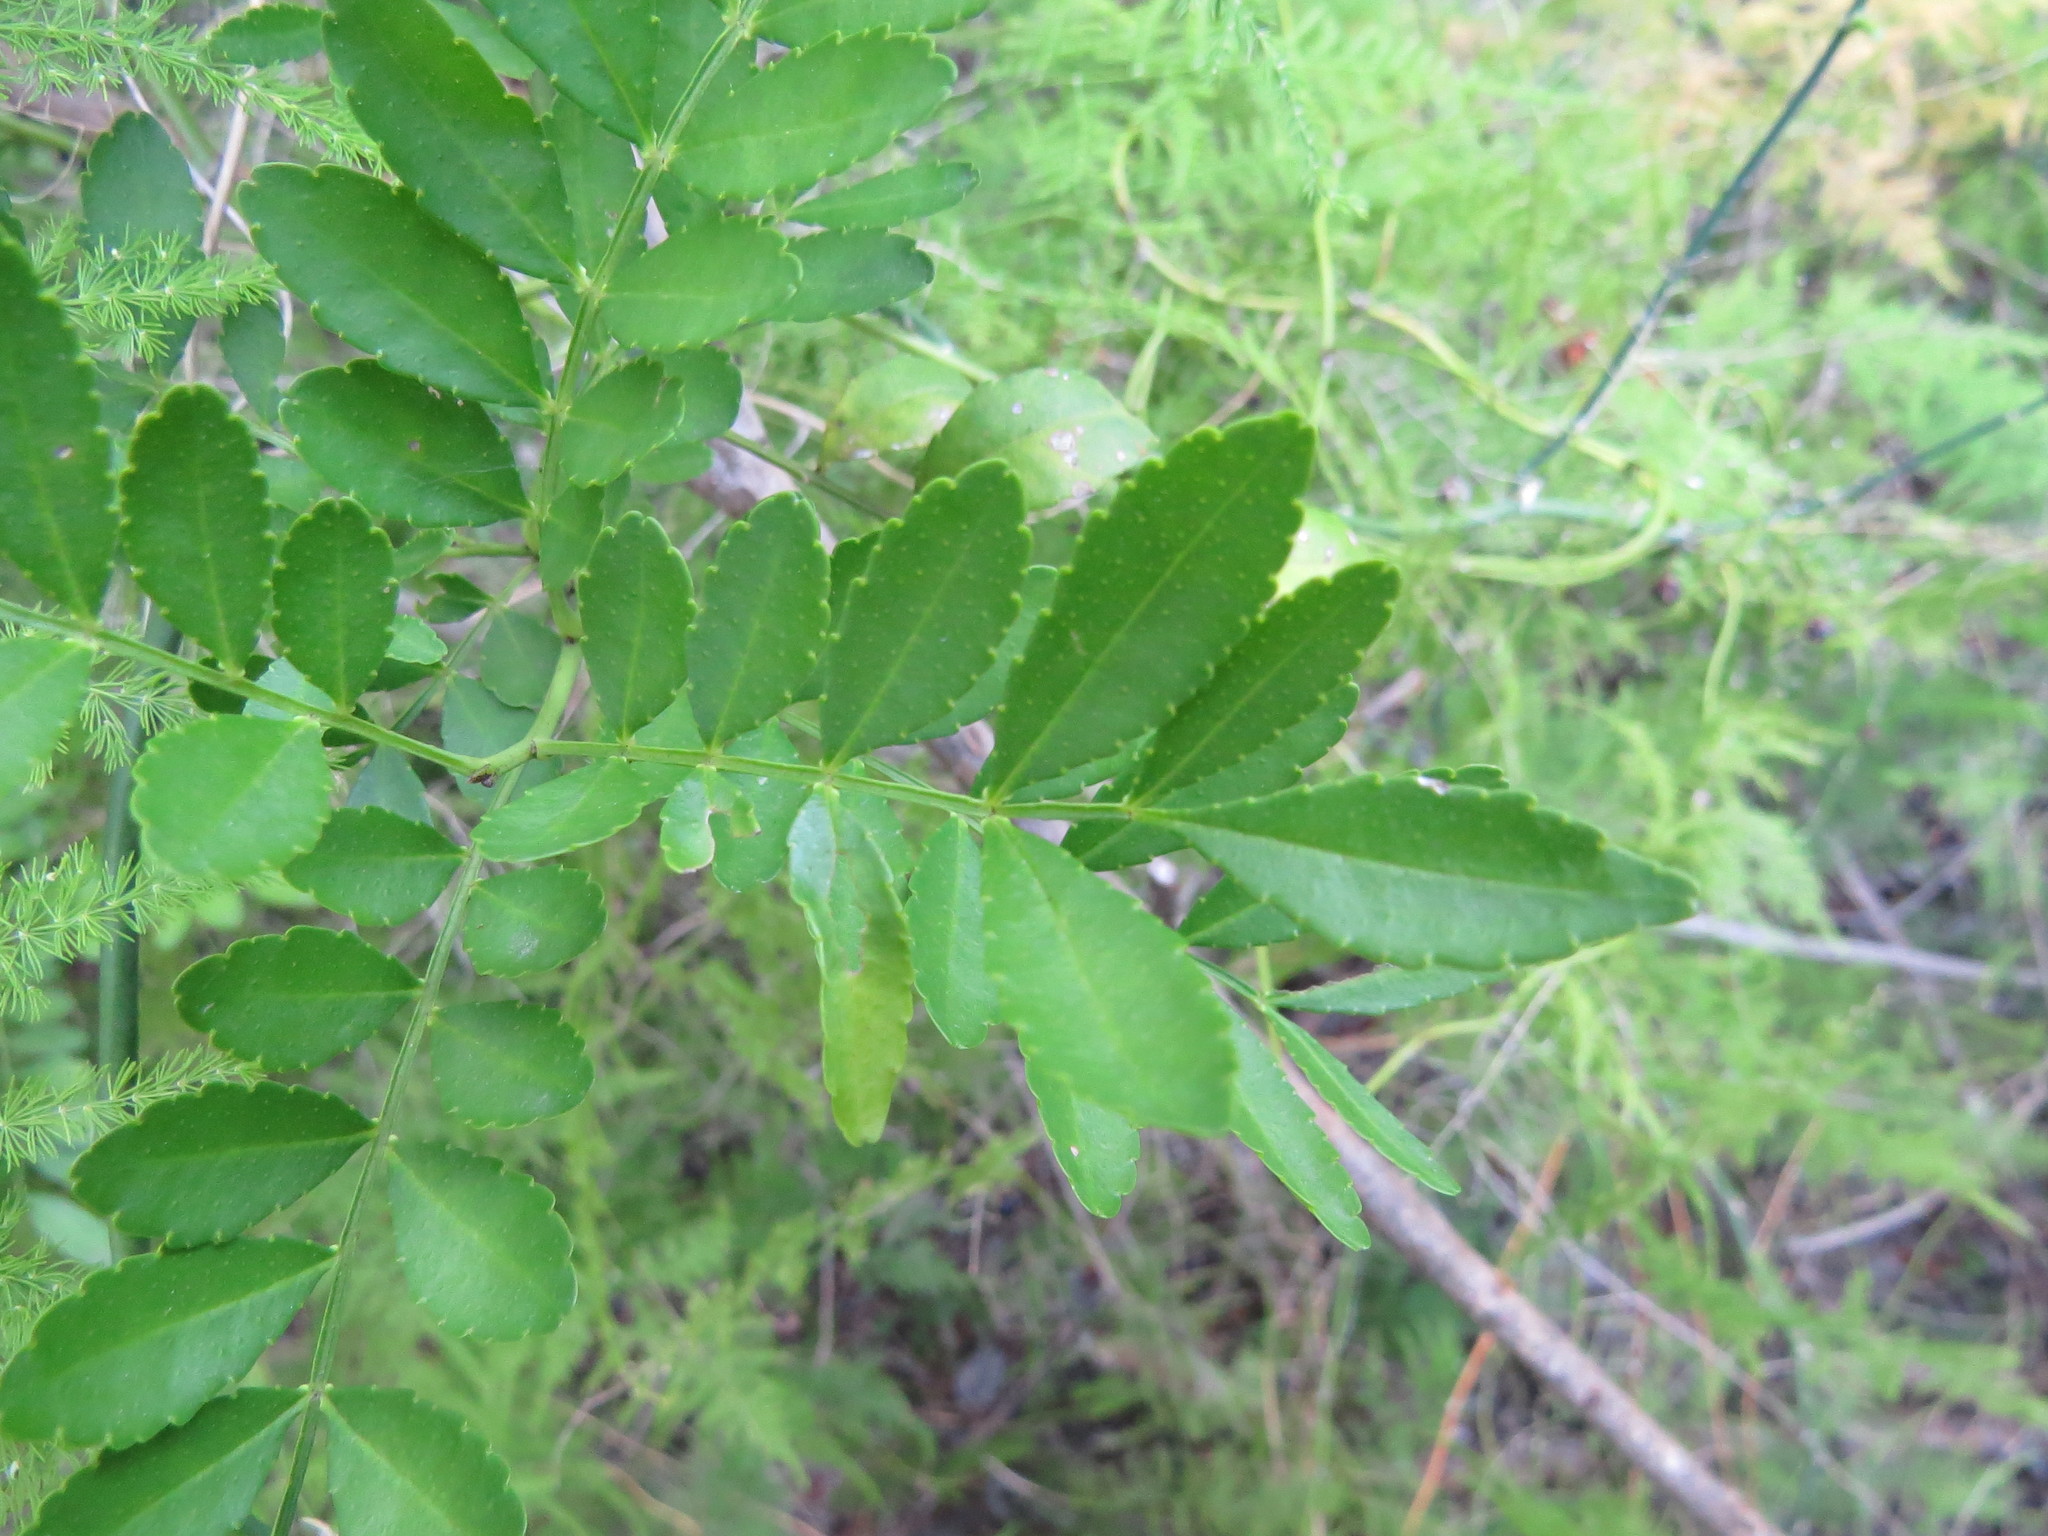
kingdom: Plantae
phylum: Tracheophyta
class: Magnoliopsida
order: Sapindales
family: Rutaceae
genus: Zanthoxylum
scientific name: Zanthoxylum fagara
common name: Lime prickly-ash
